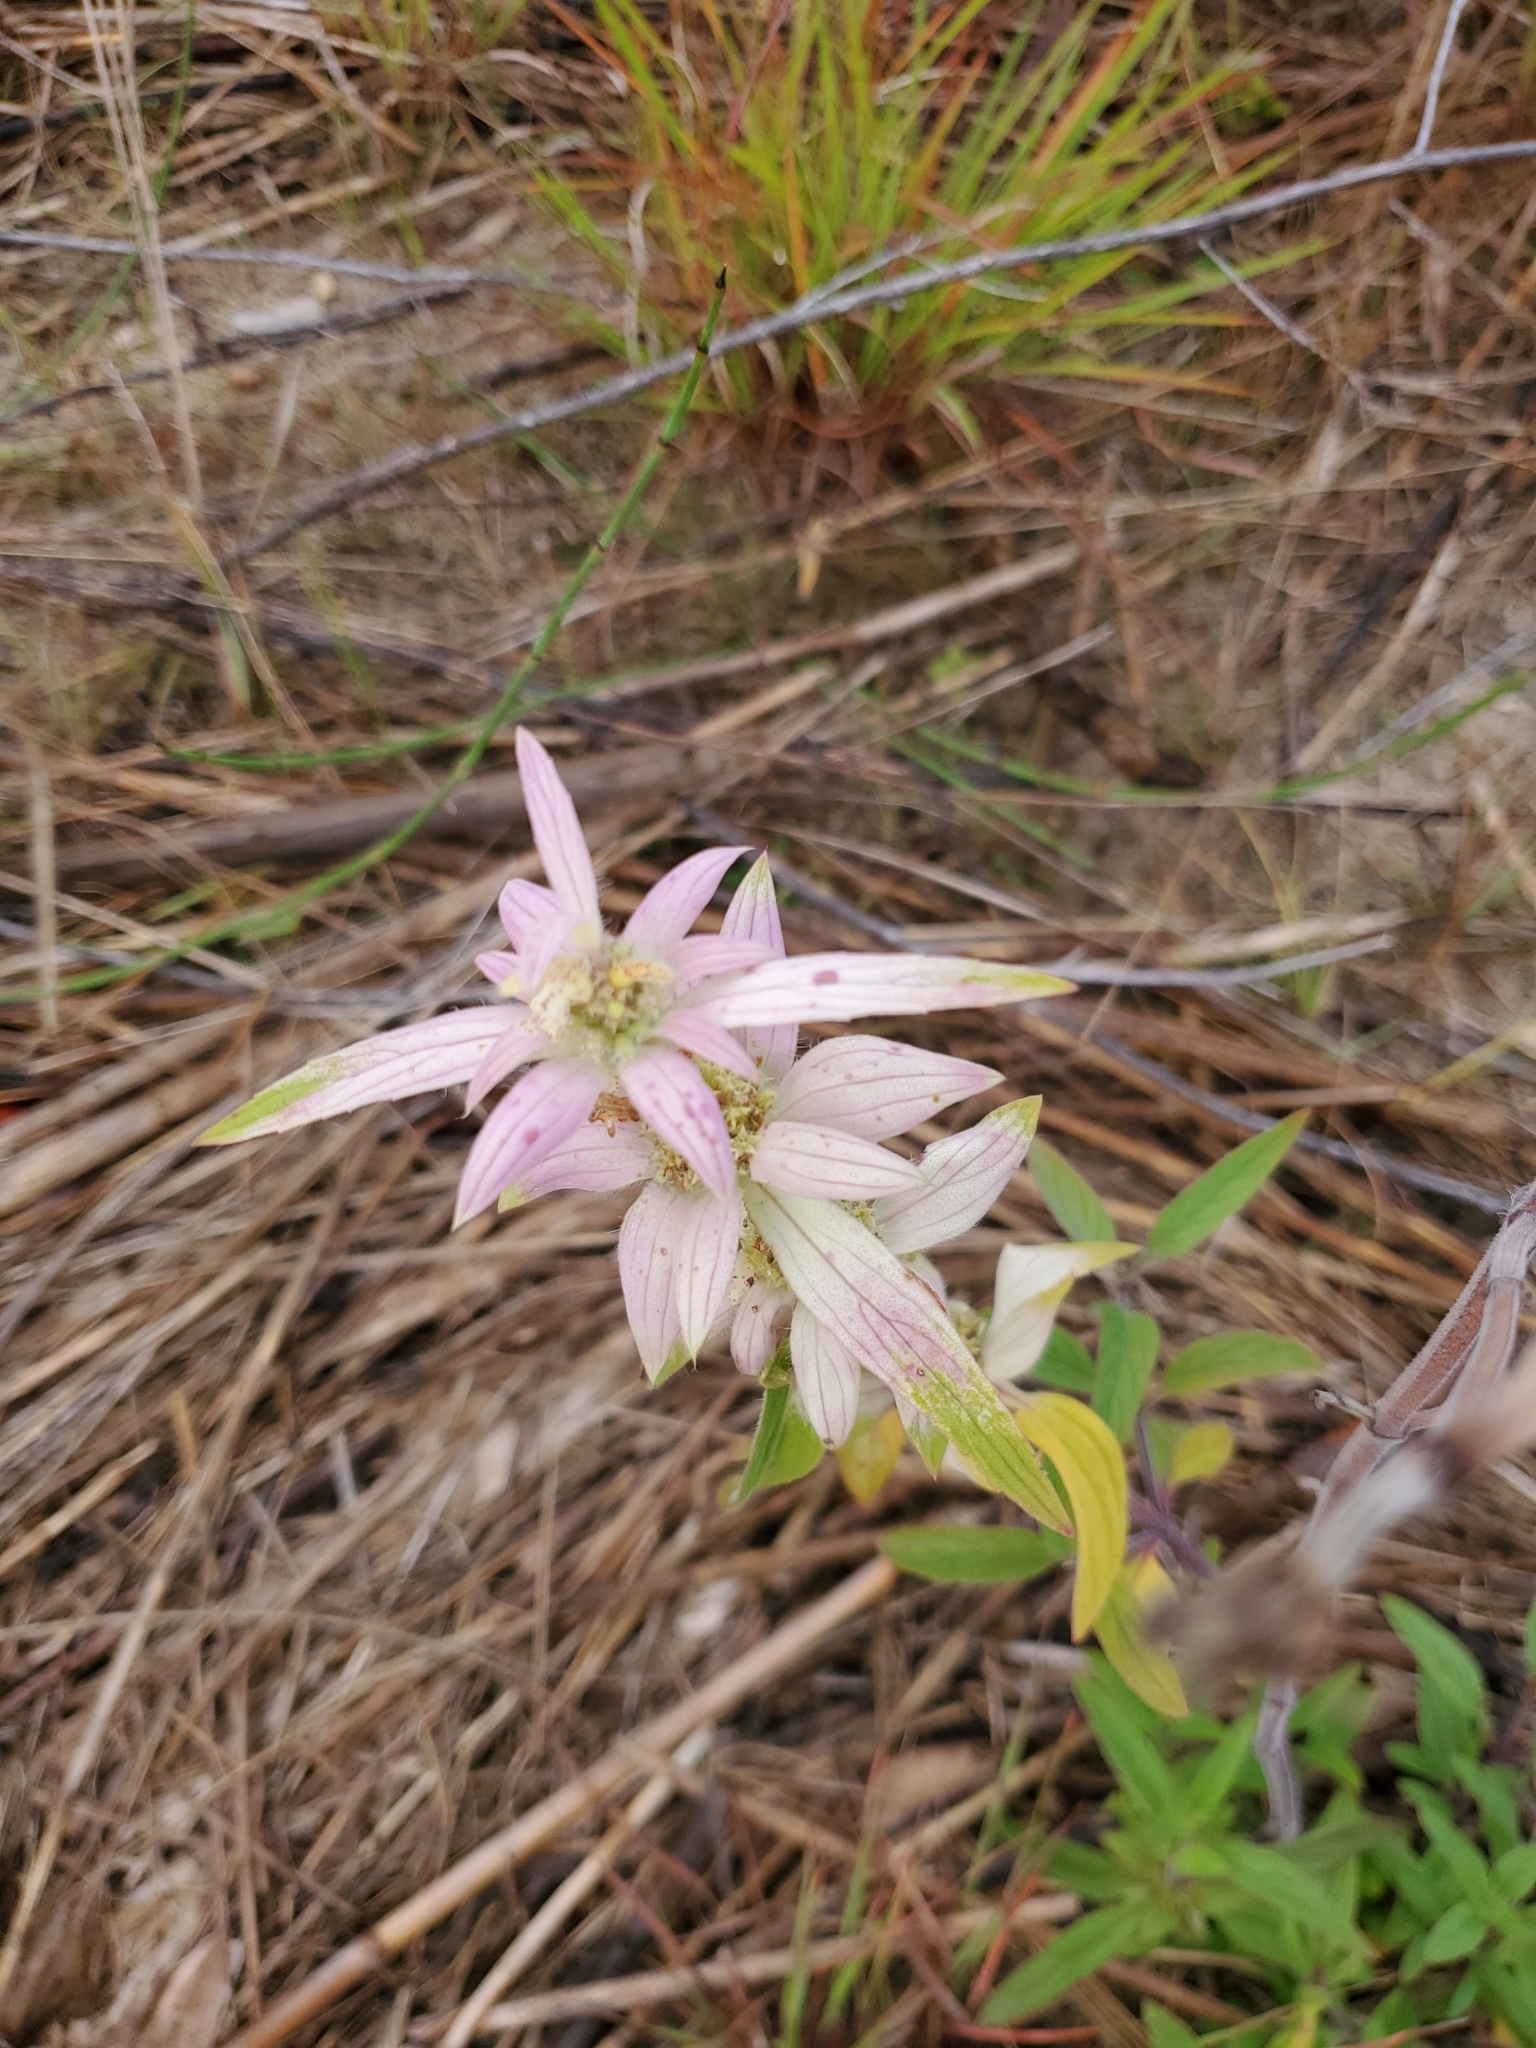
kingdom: Plantae
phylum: Tracheophyta
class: Magnoliopsida
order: Lamiales
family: Lamiaceae
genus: Monarda
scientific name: Monarda punctata
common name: Dotted monarda
